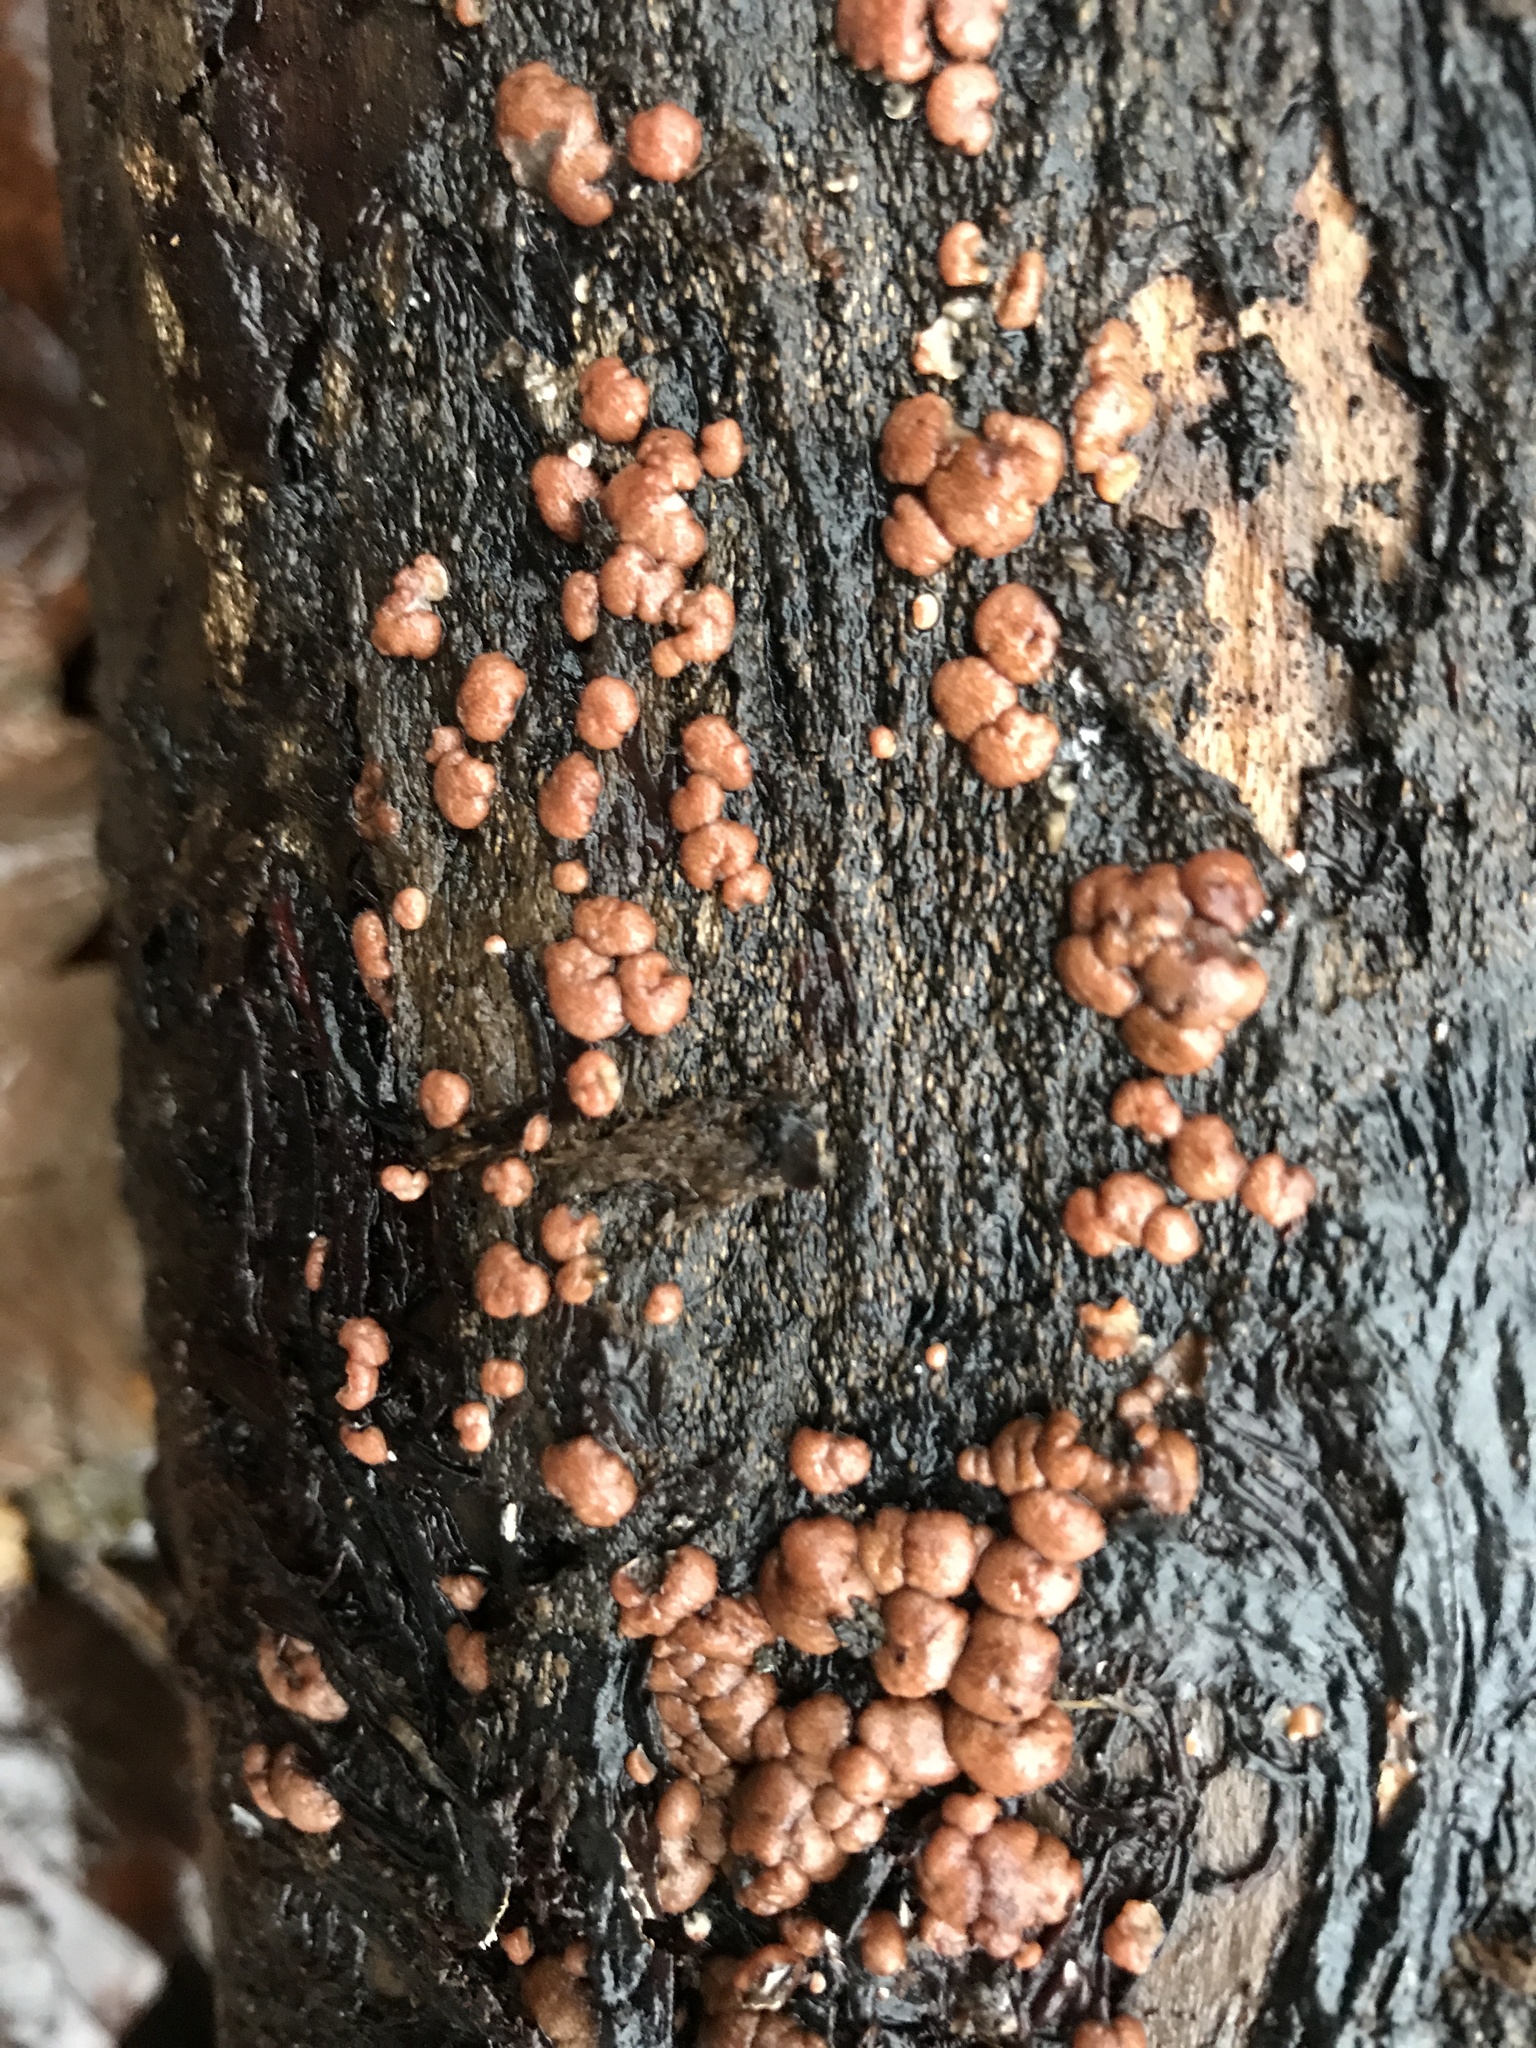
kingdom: Fungi
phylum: Ascomycota
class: Sordariomycetes
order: Hypocreales
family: Nectriaceae
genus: Nectria
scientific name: Nectria cinnabarina
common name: Coral spot
